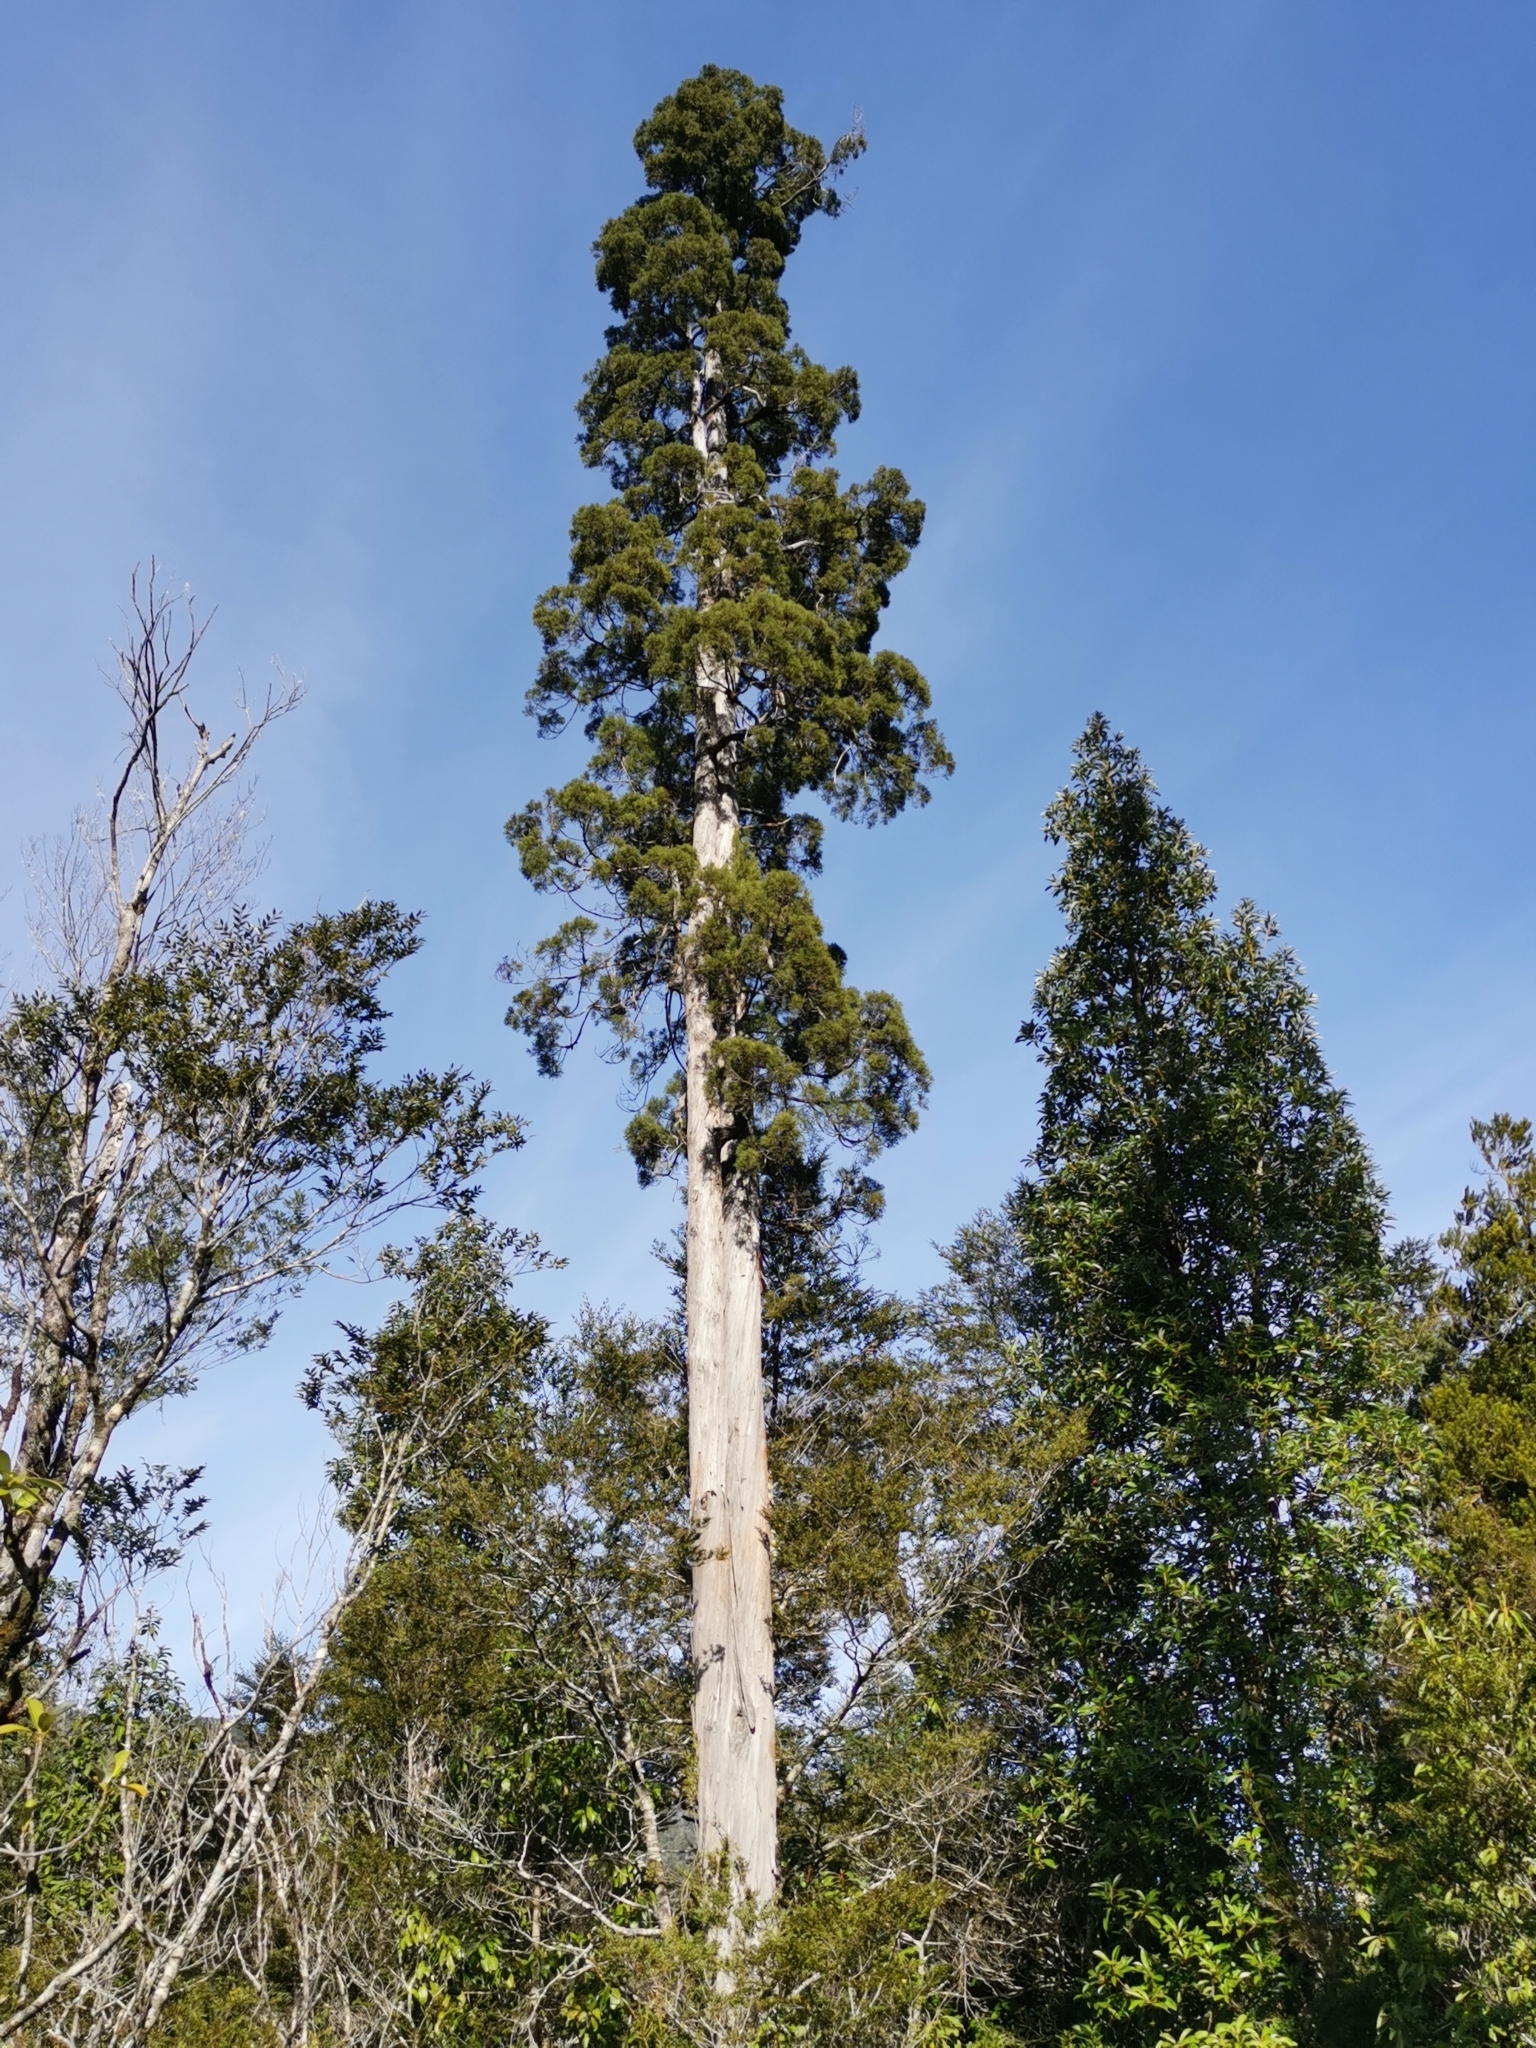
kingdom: Plantae
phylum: Tracheophyta
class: Pinopsida
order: Pinales
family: Cupressaceae
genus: Fitzroya
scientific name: Fitzroya cupressoides
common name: Patagonian cypress
